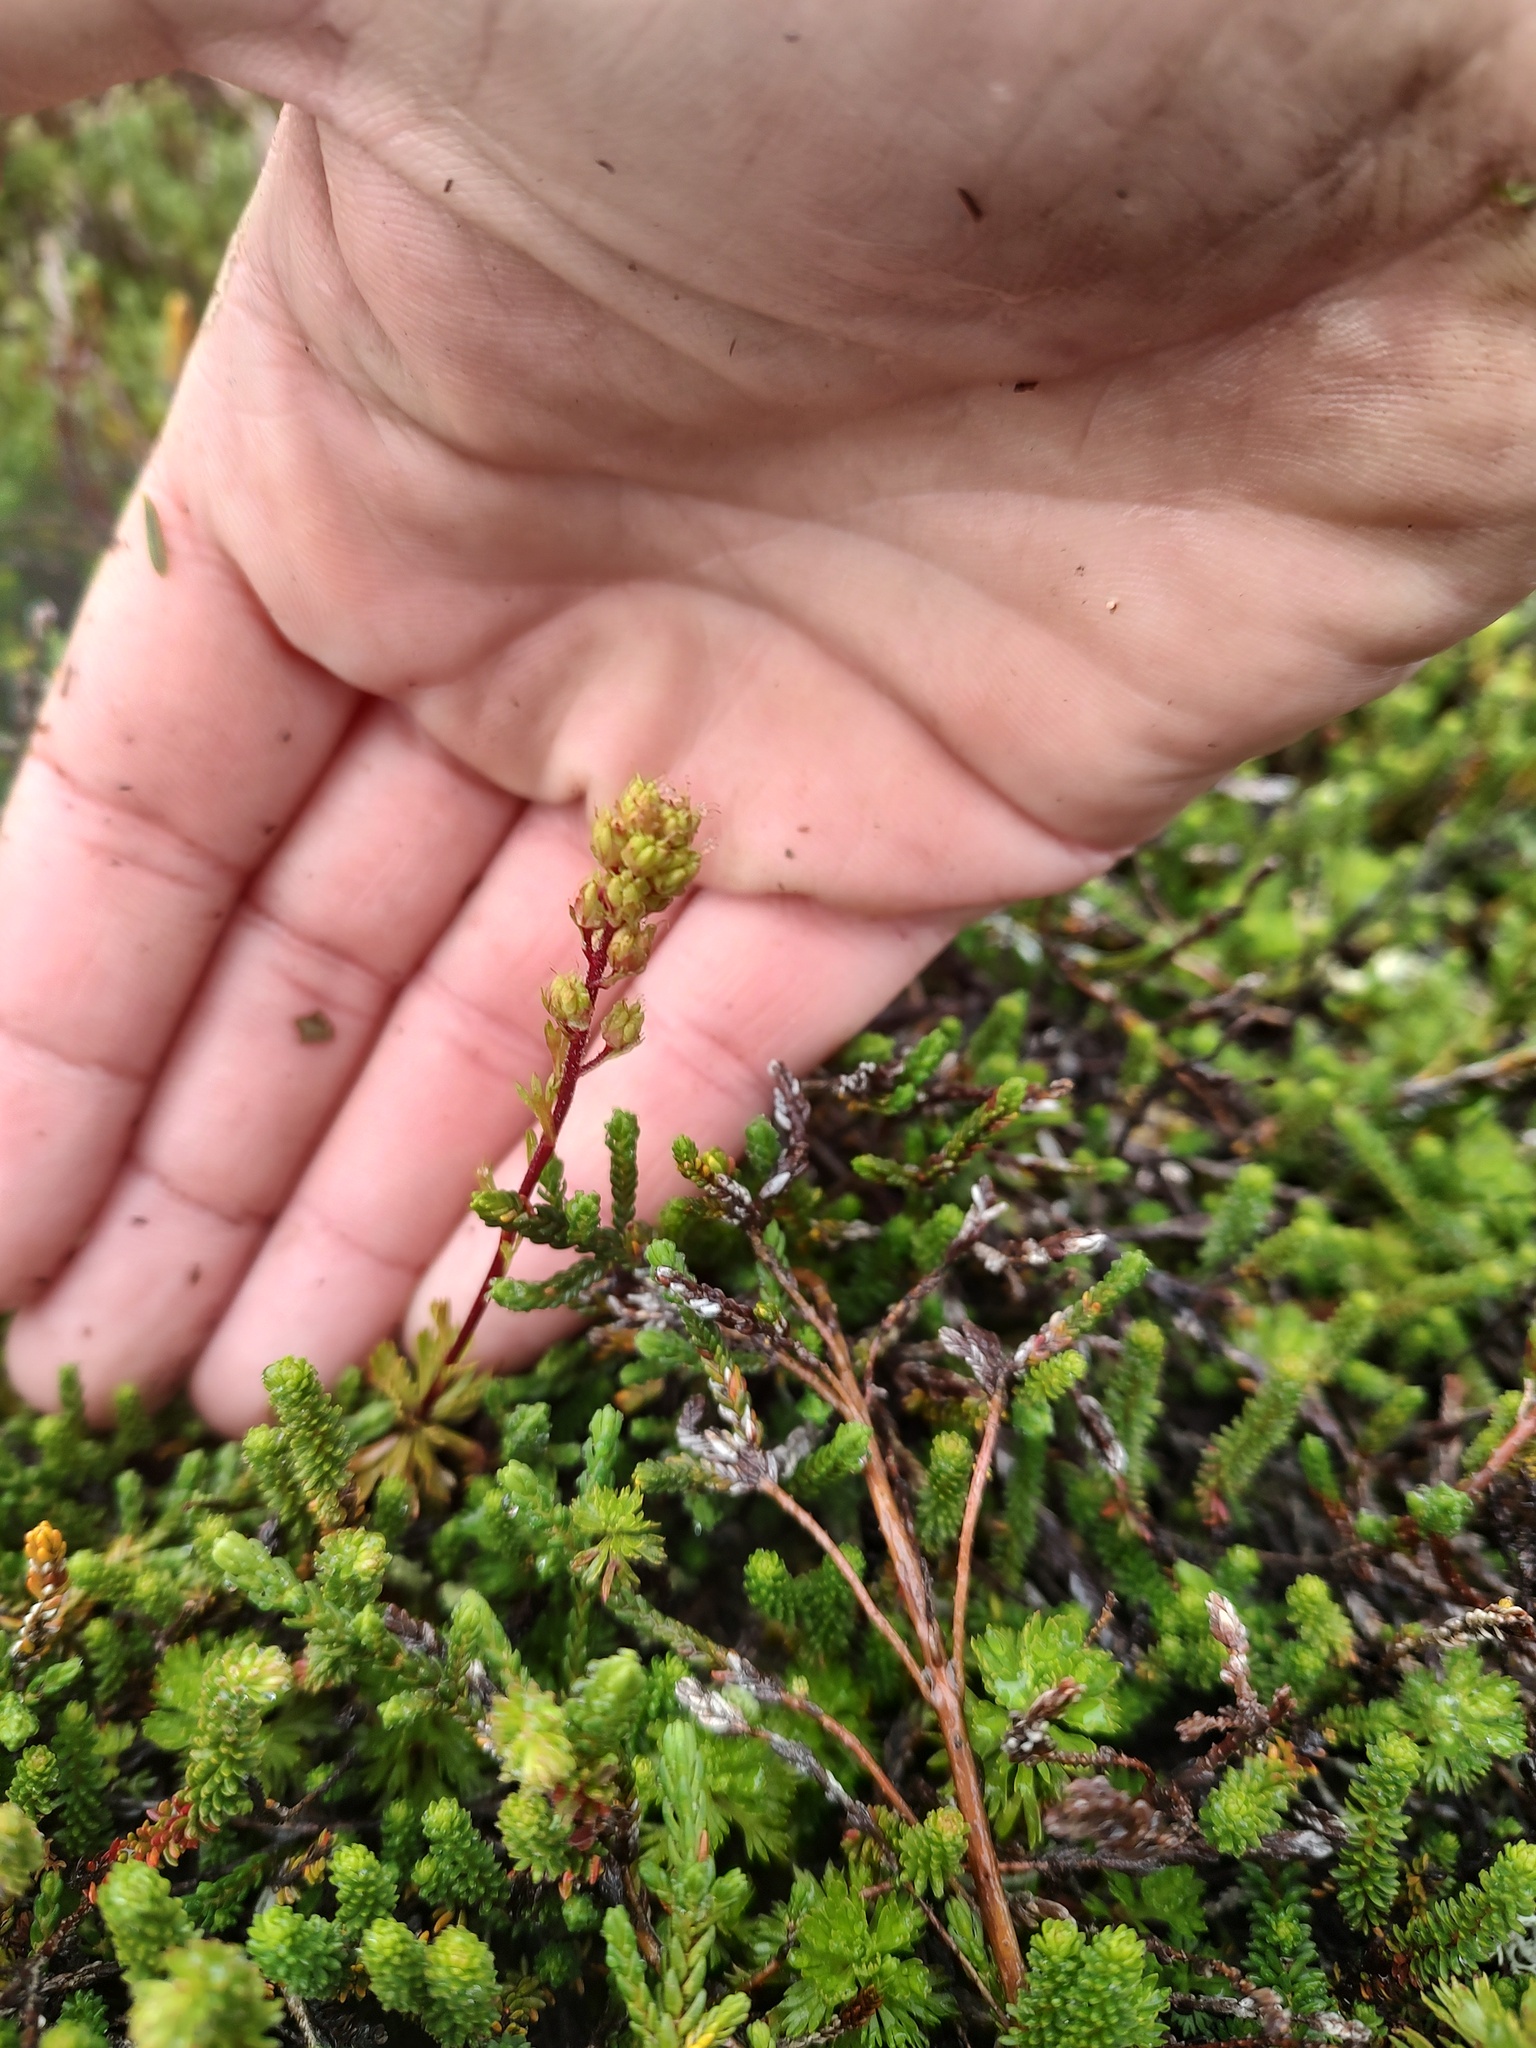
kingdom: Plantae
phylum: Tracheophyta
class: Magnoliopsida
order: Rosales
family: Rosaceae
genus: Luetkea
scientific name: Luetkea pectinata
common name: Partridgefoot
